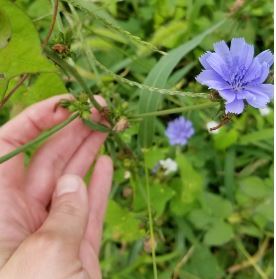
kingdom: Plantae
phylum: Tracheophyta
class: Magnoliopsida
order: Asterales
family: Asteraceae
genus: Cichorium
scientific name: Cichorium intybus
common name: Chicory
